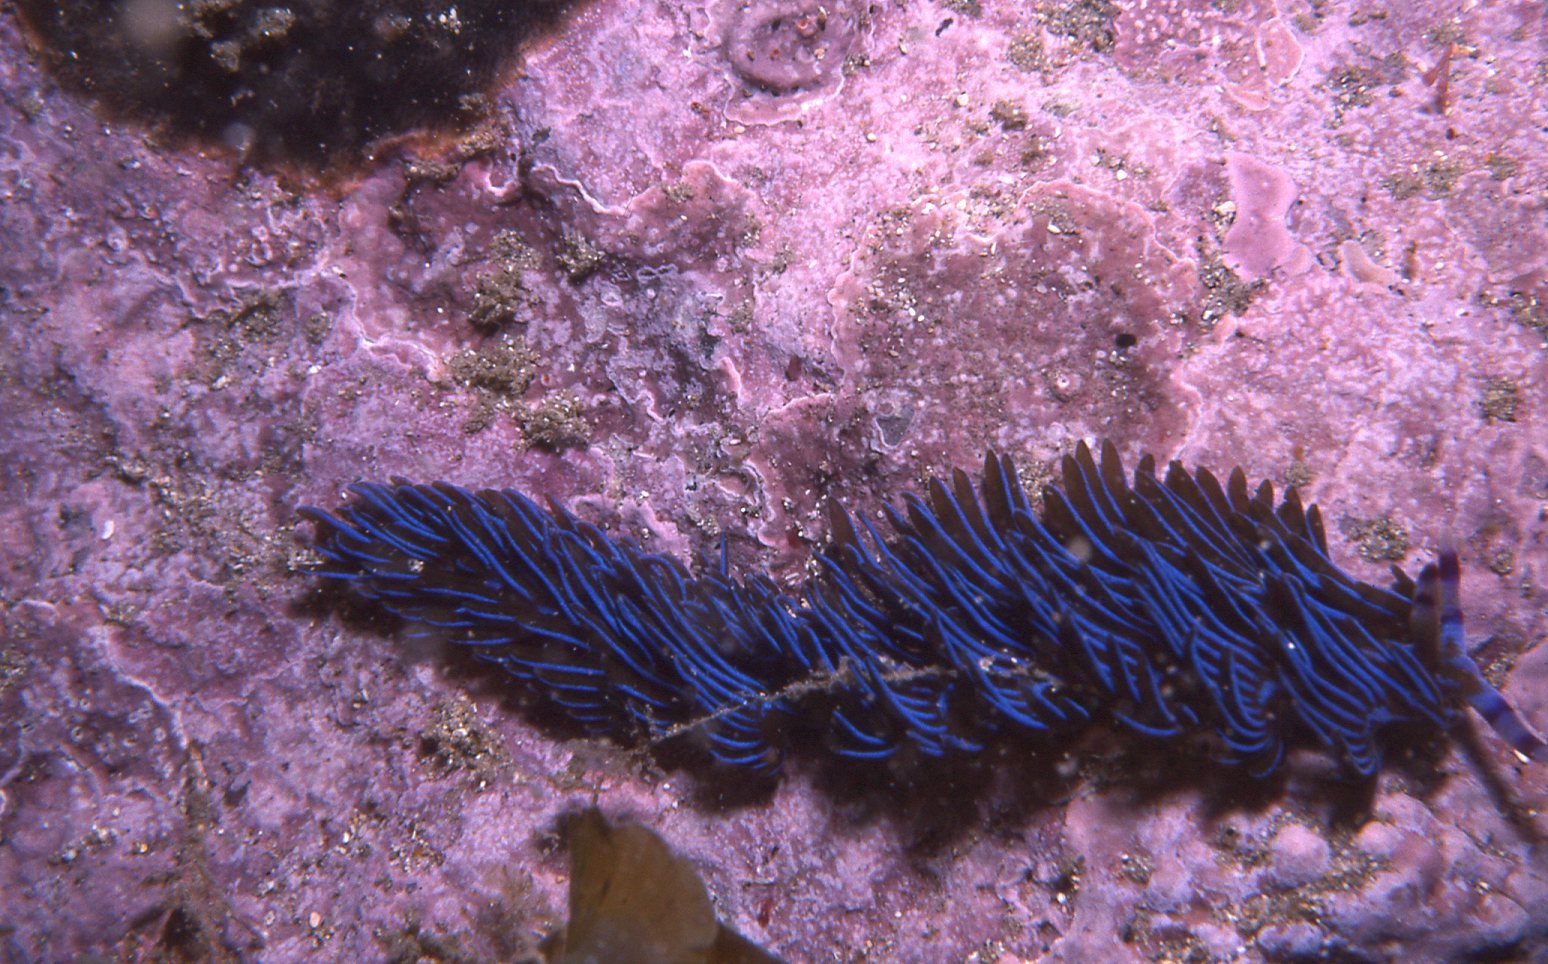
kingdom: Animalia
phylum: Mollusca
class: Gastropoda
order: Nudibranchia
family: Facelinidae
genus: Pteraeolidia
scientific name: Pteraeolidia ianthina
